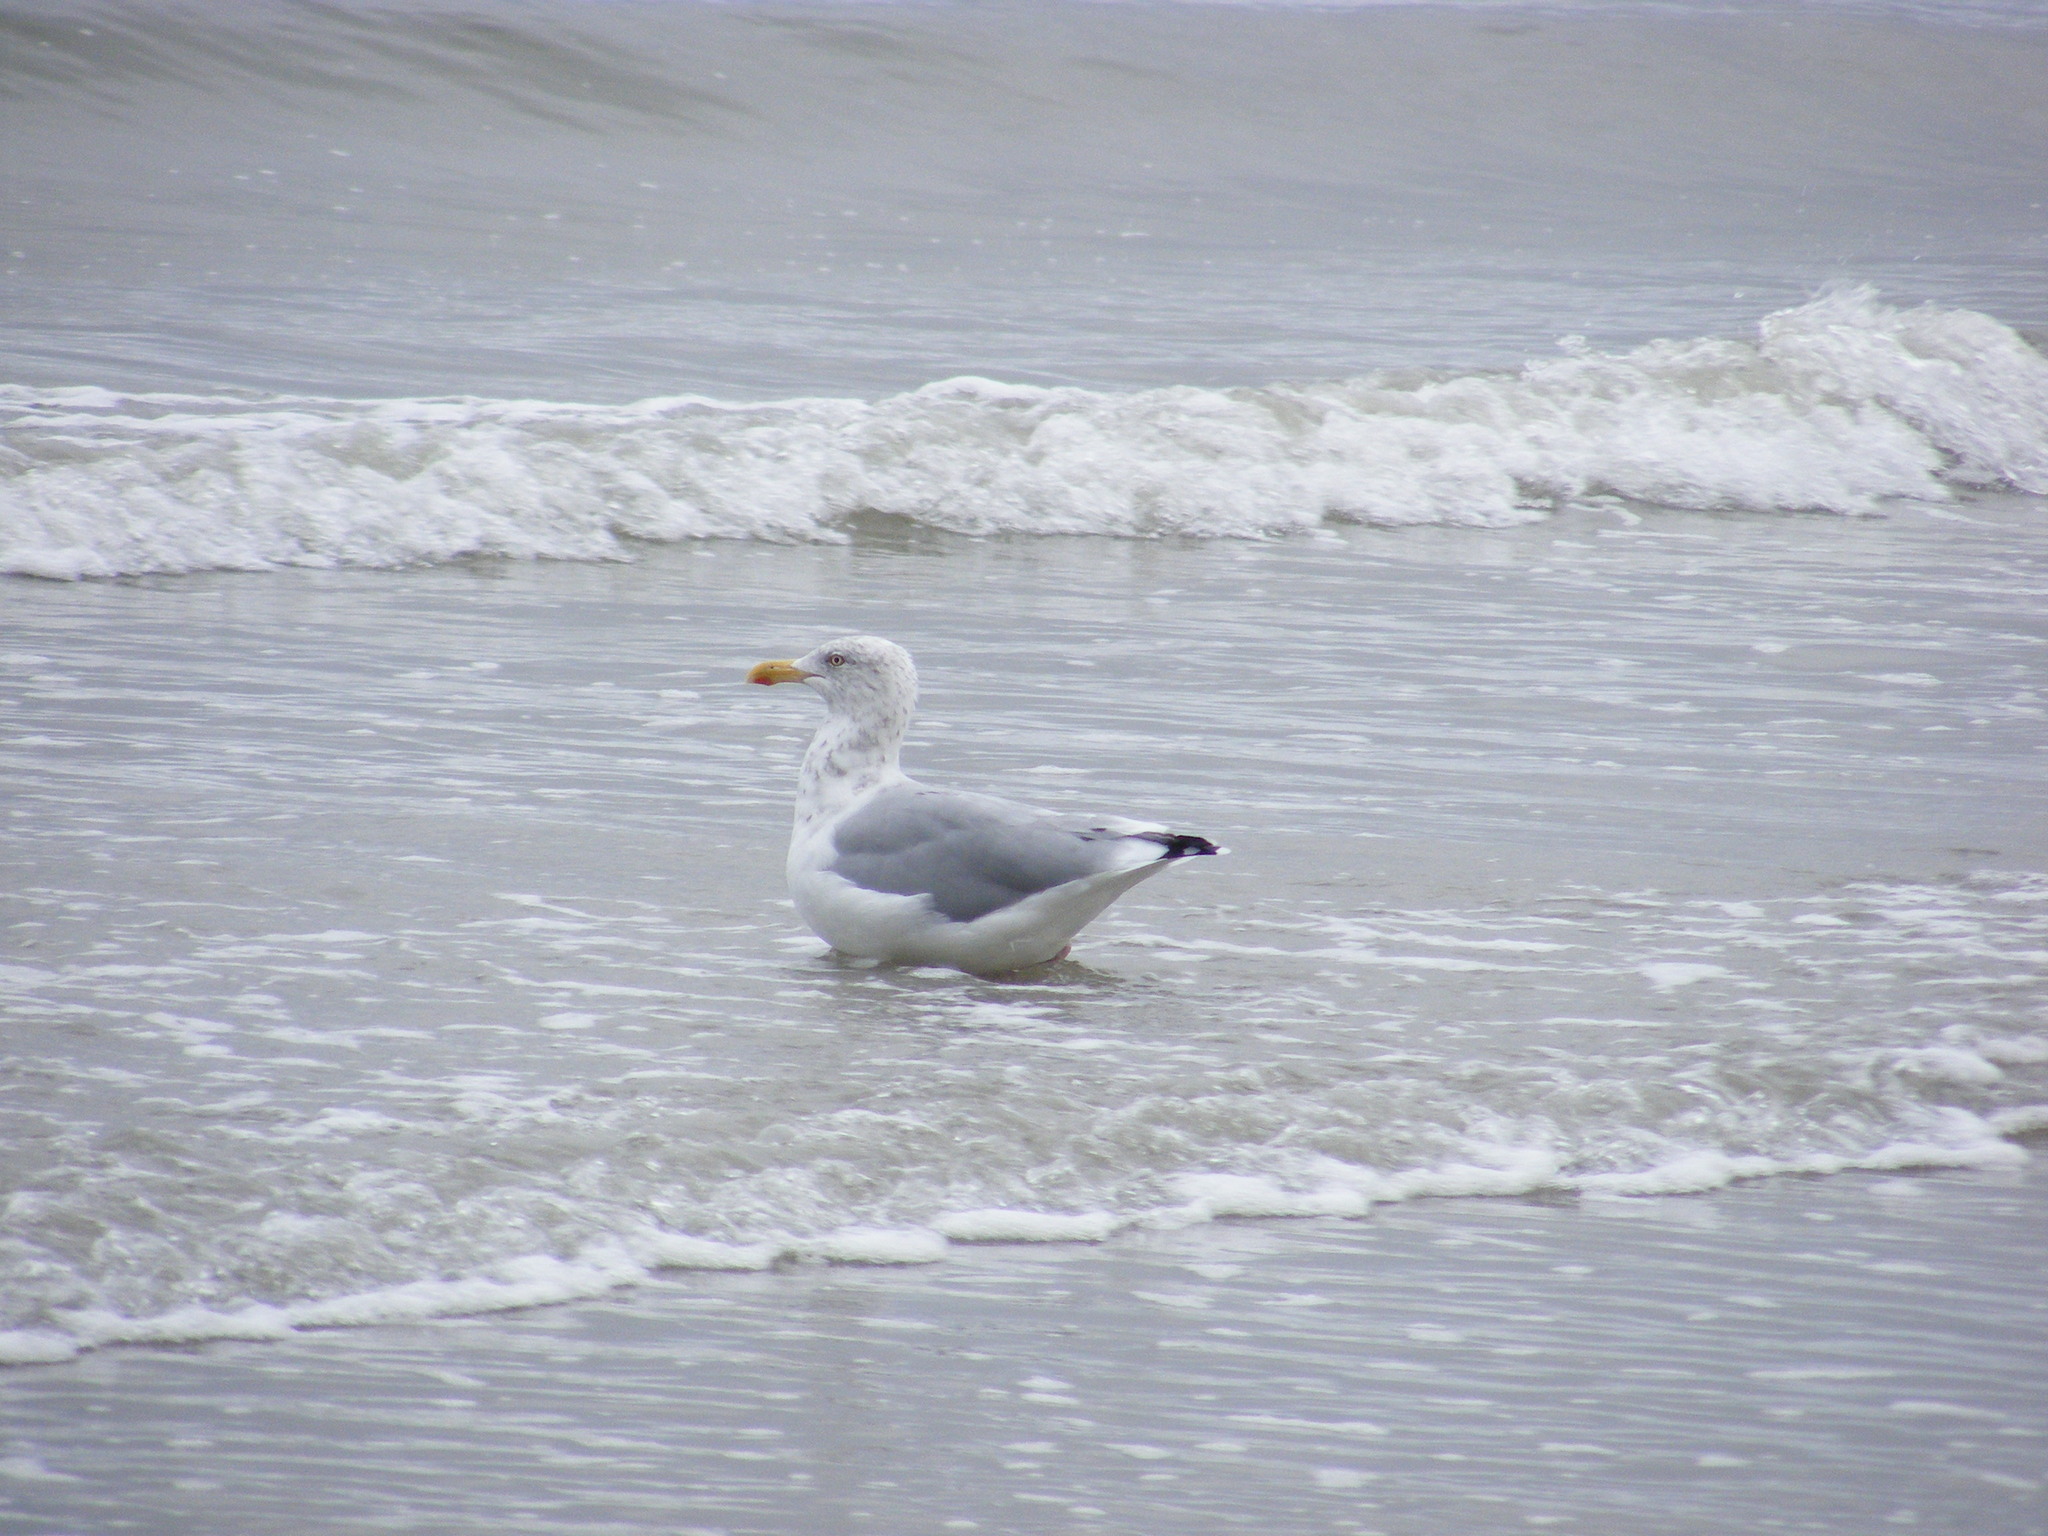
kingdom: Animalia
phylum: Chordata
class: Aves
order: Charadriiformes
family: Laridae
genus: Larus
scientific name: Larus argentatus
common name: Herring gull
